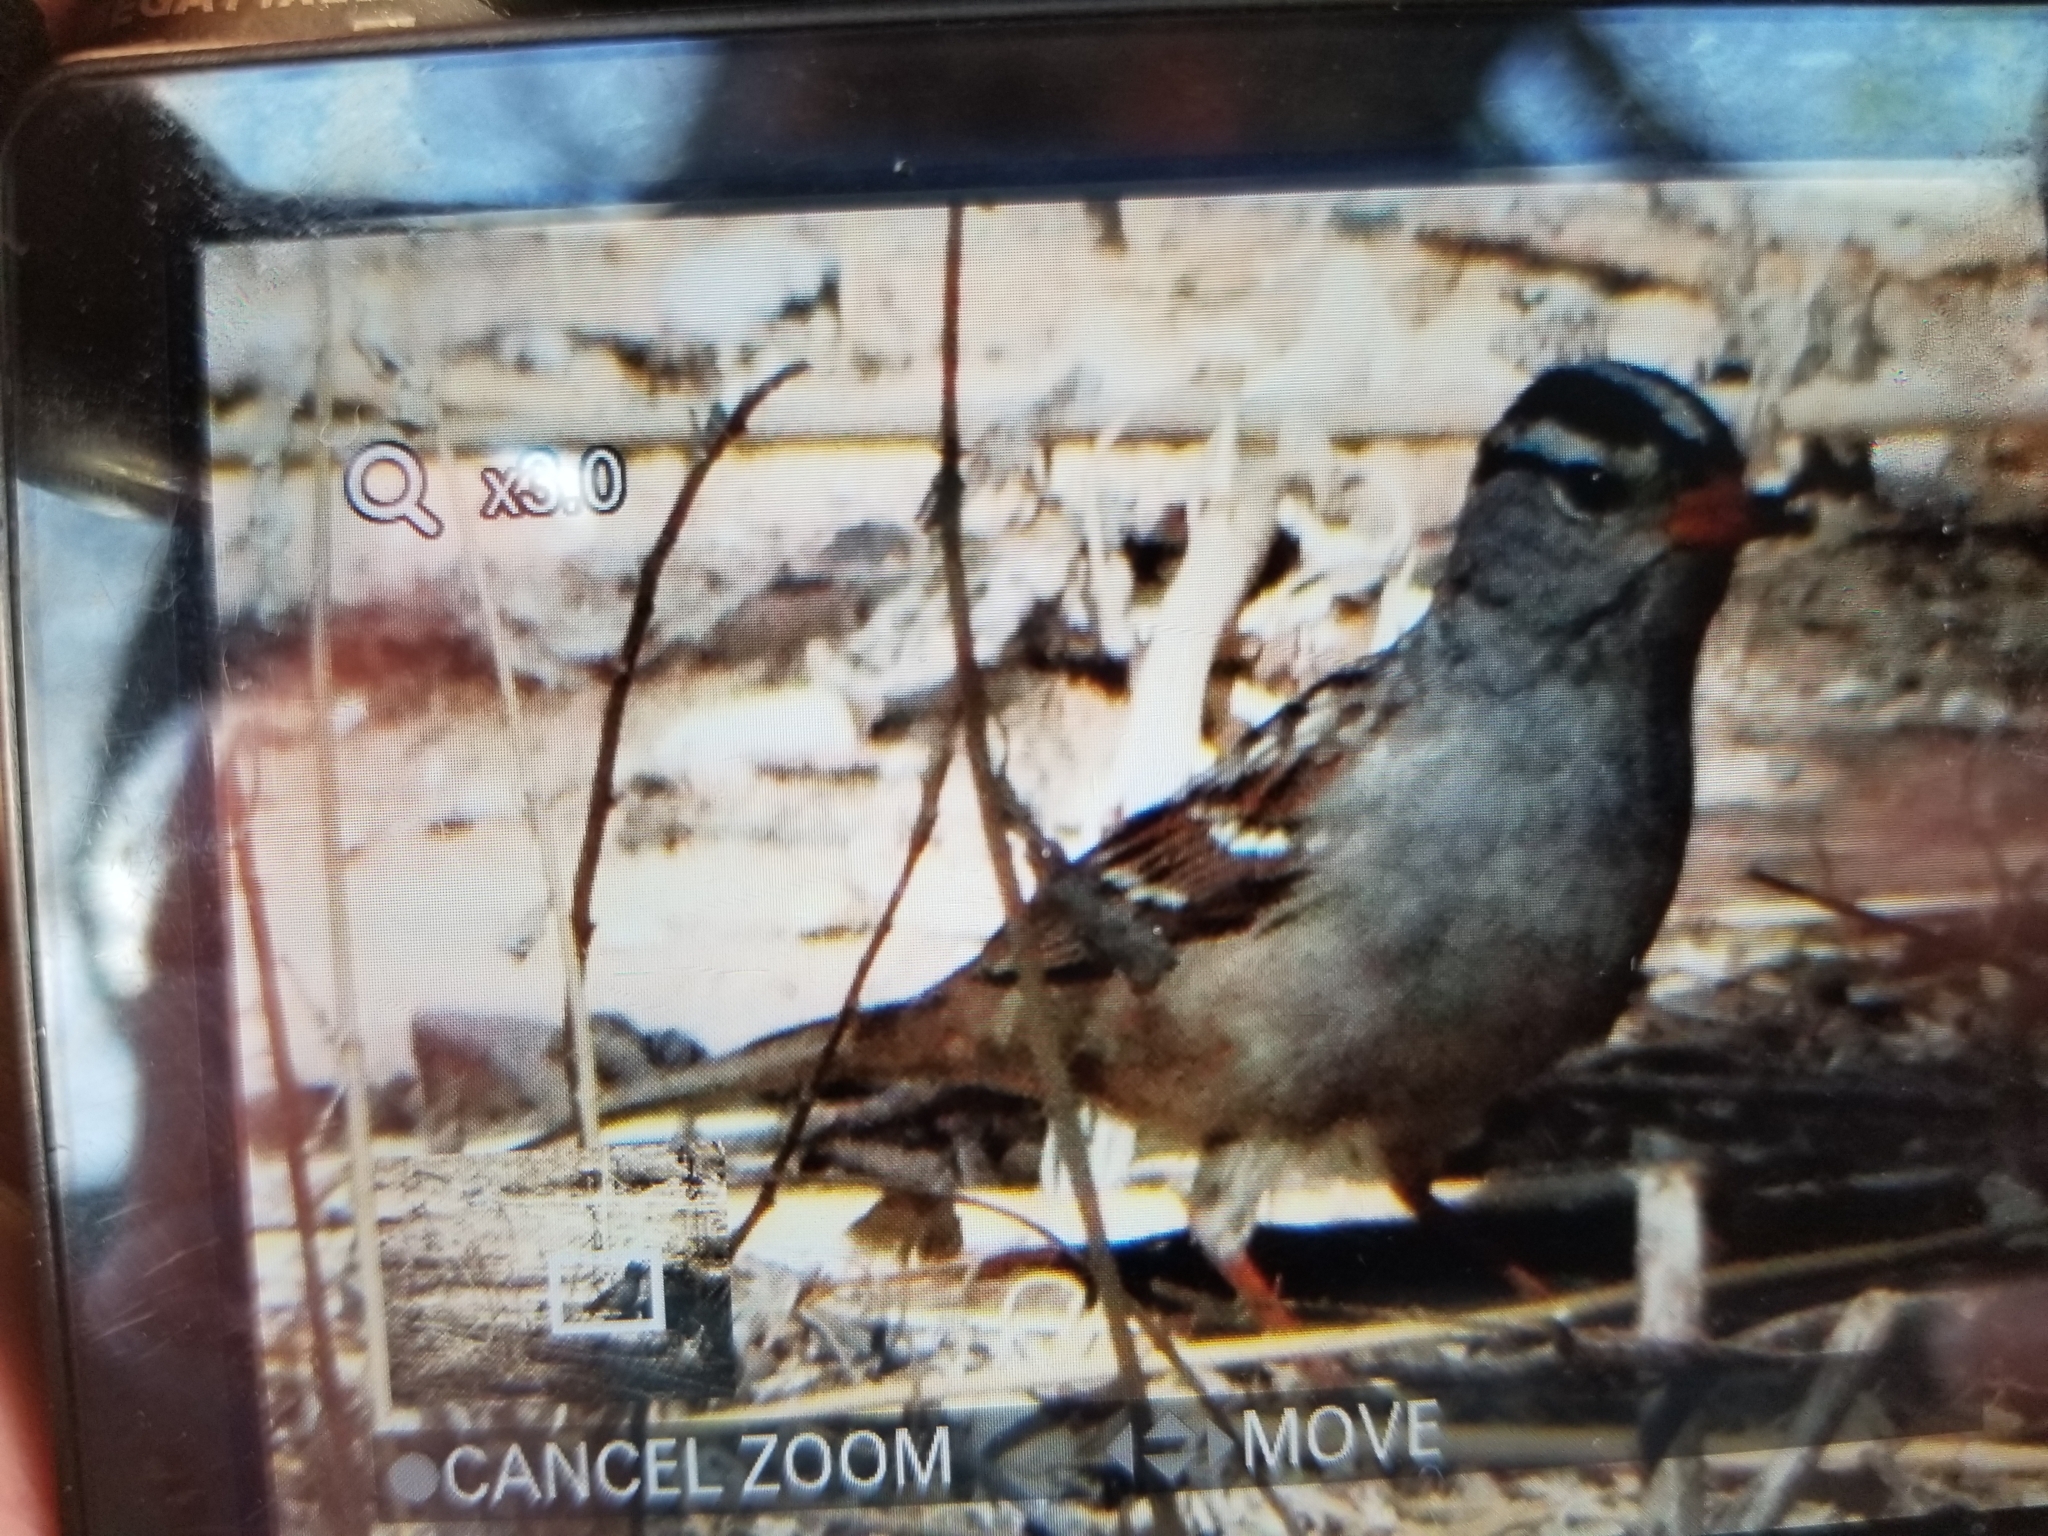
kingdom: Animalia
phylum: Chordata
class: Aves
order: Passeriformes
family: Passerellidae
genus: Zonotrichia
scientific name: Zonotrichia leucophrys
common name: White-crowned sparrow
